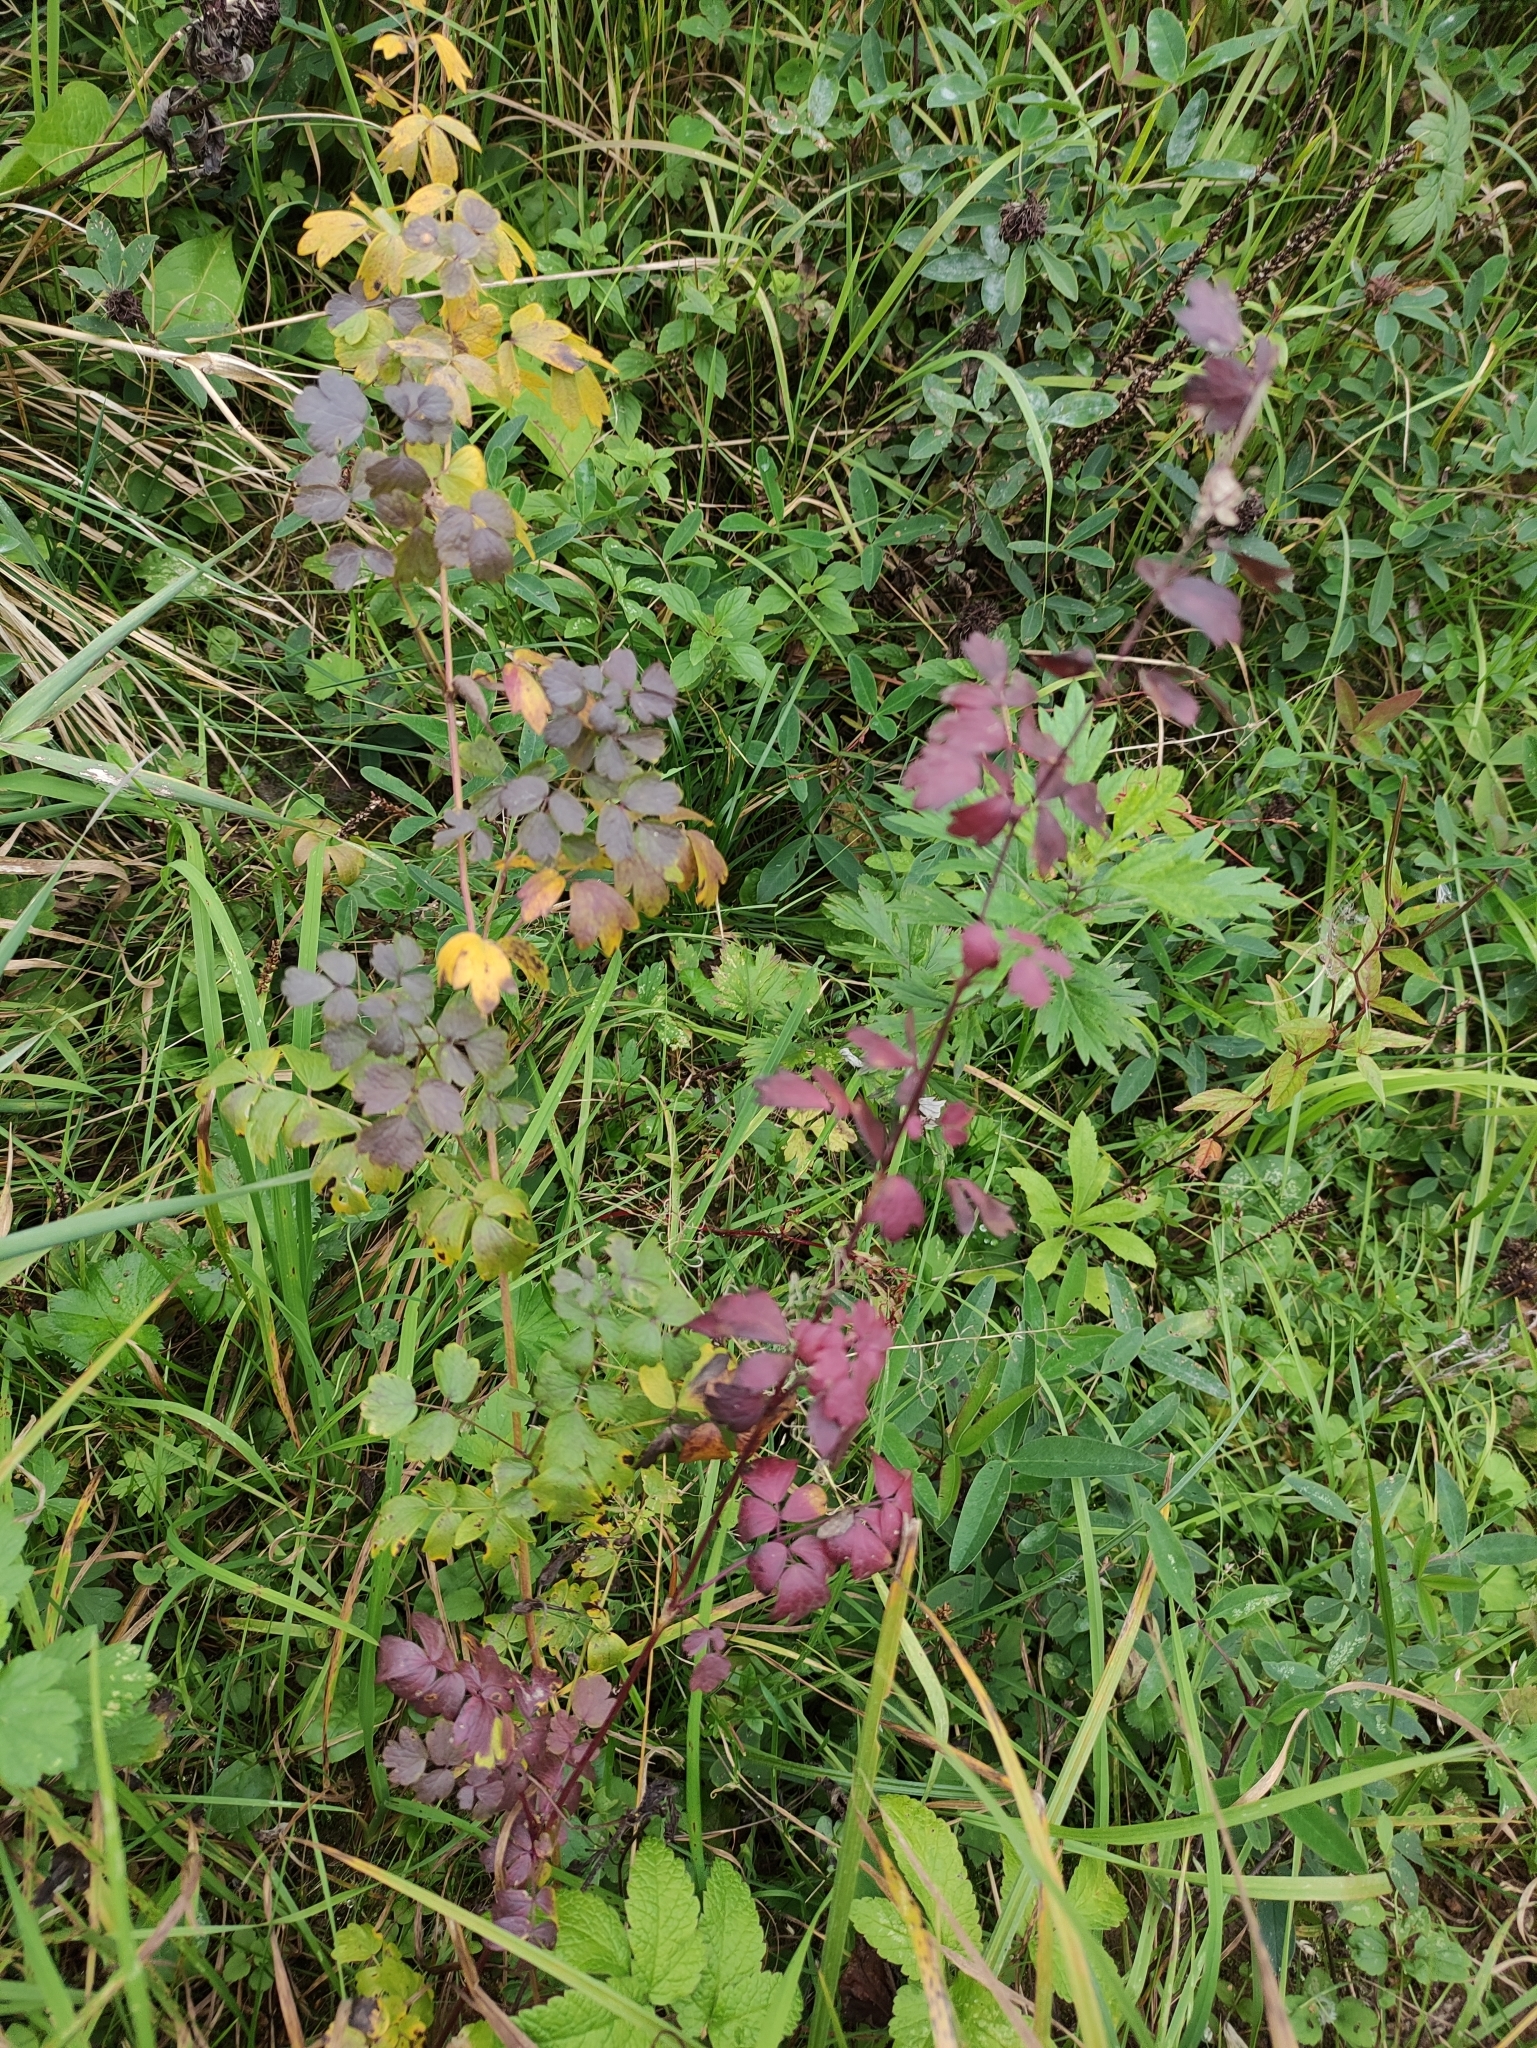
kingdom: Plantae
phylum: Tracheophyta
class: Magnoliopsida
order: Ranunculales
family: Ranunculaceae
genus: Thalictrum
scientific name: Thalictrum minus
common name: Lesser meadow-rue
